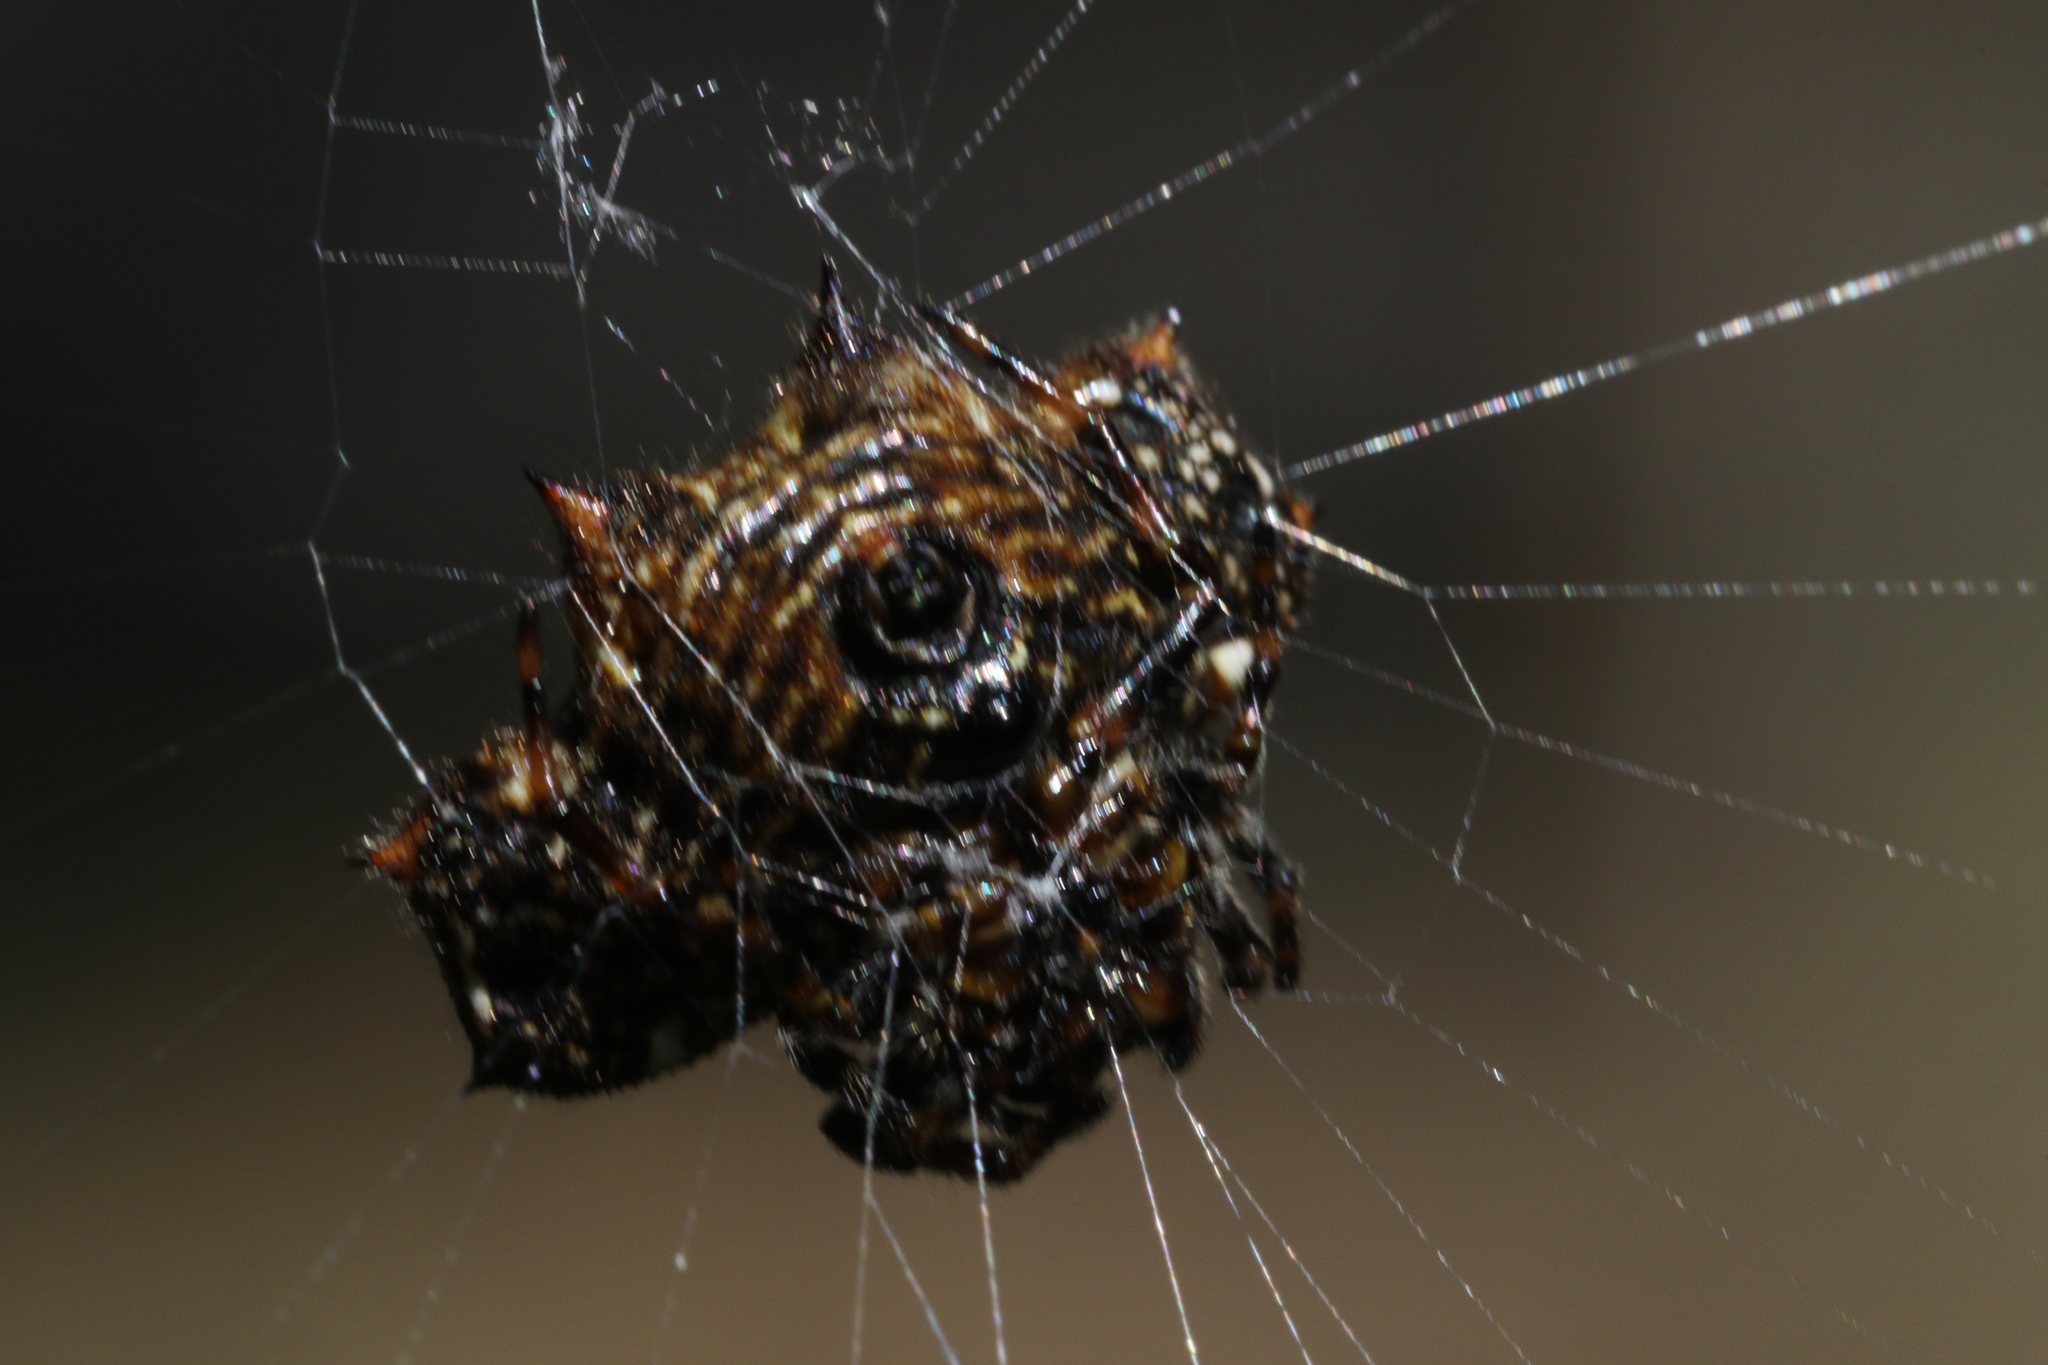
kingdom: Animalia
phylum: Arthropoda
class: Arachnida
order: Araneae
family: Araneidae
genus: Gasteracantha
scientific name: Gasteracantha cancriformis
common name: Orb weavers
